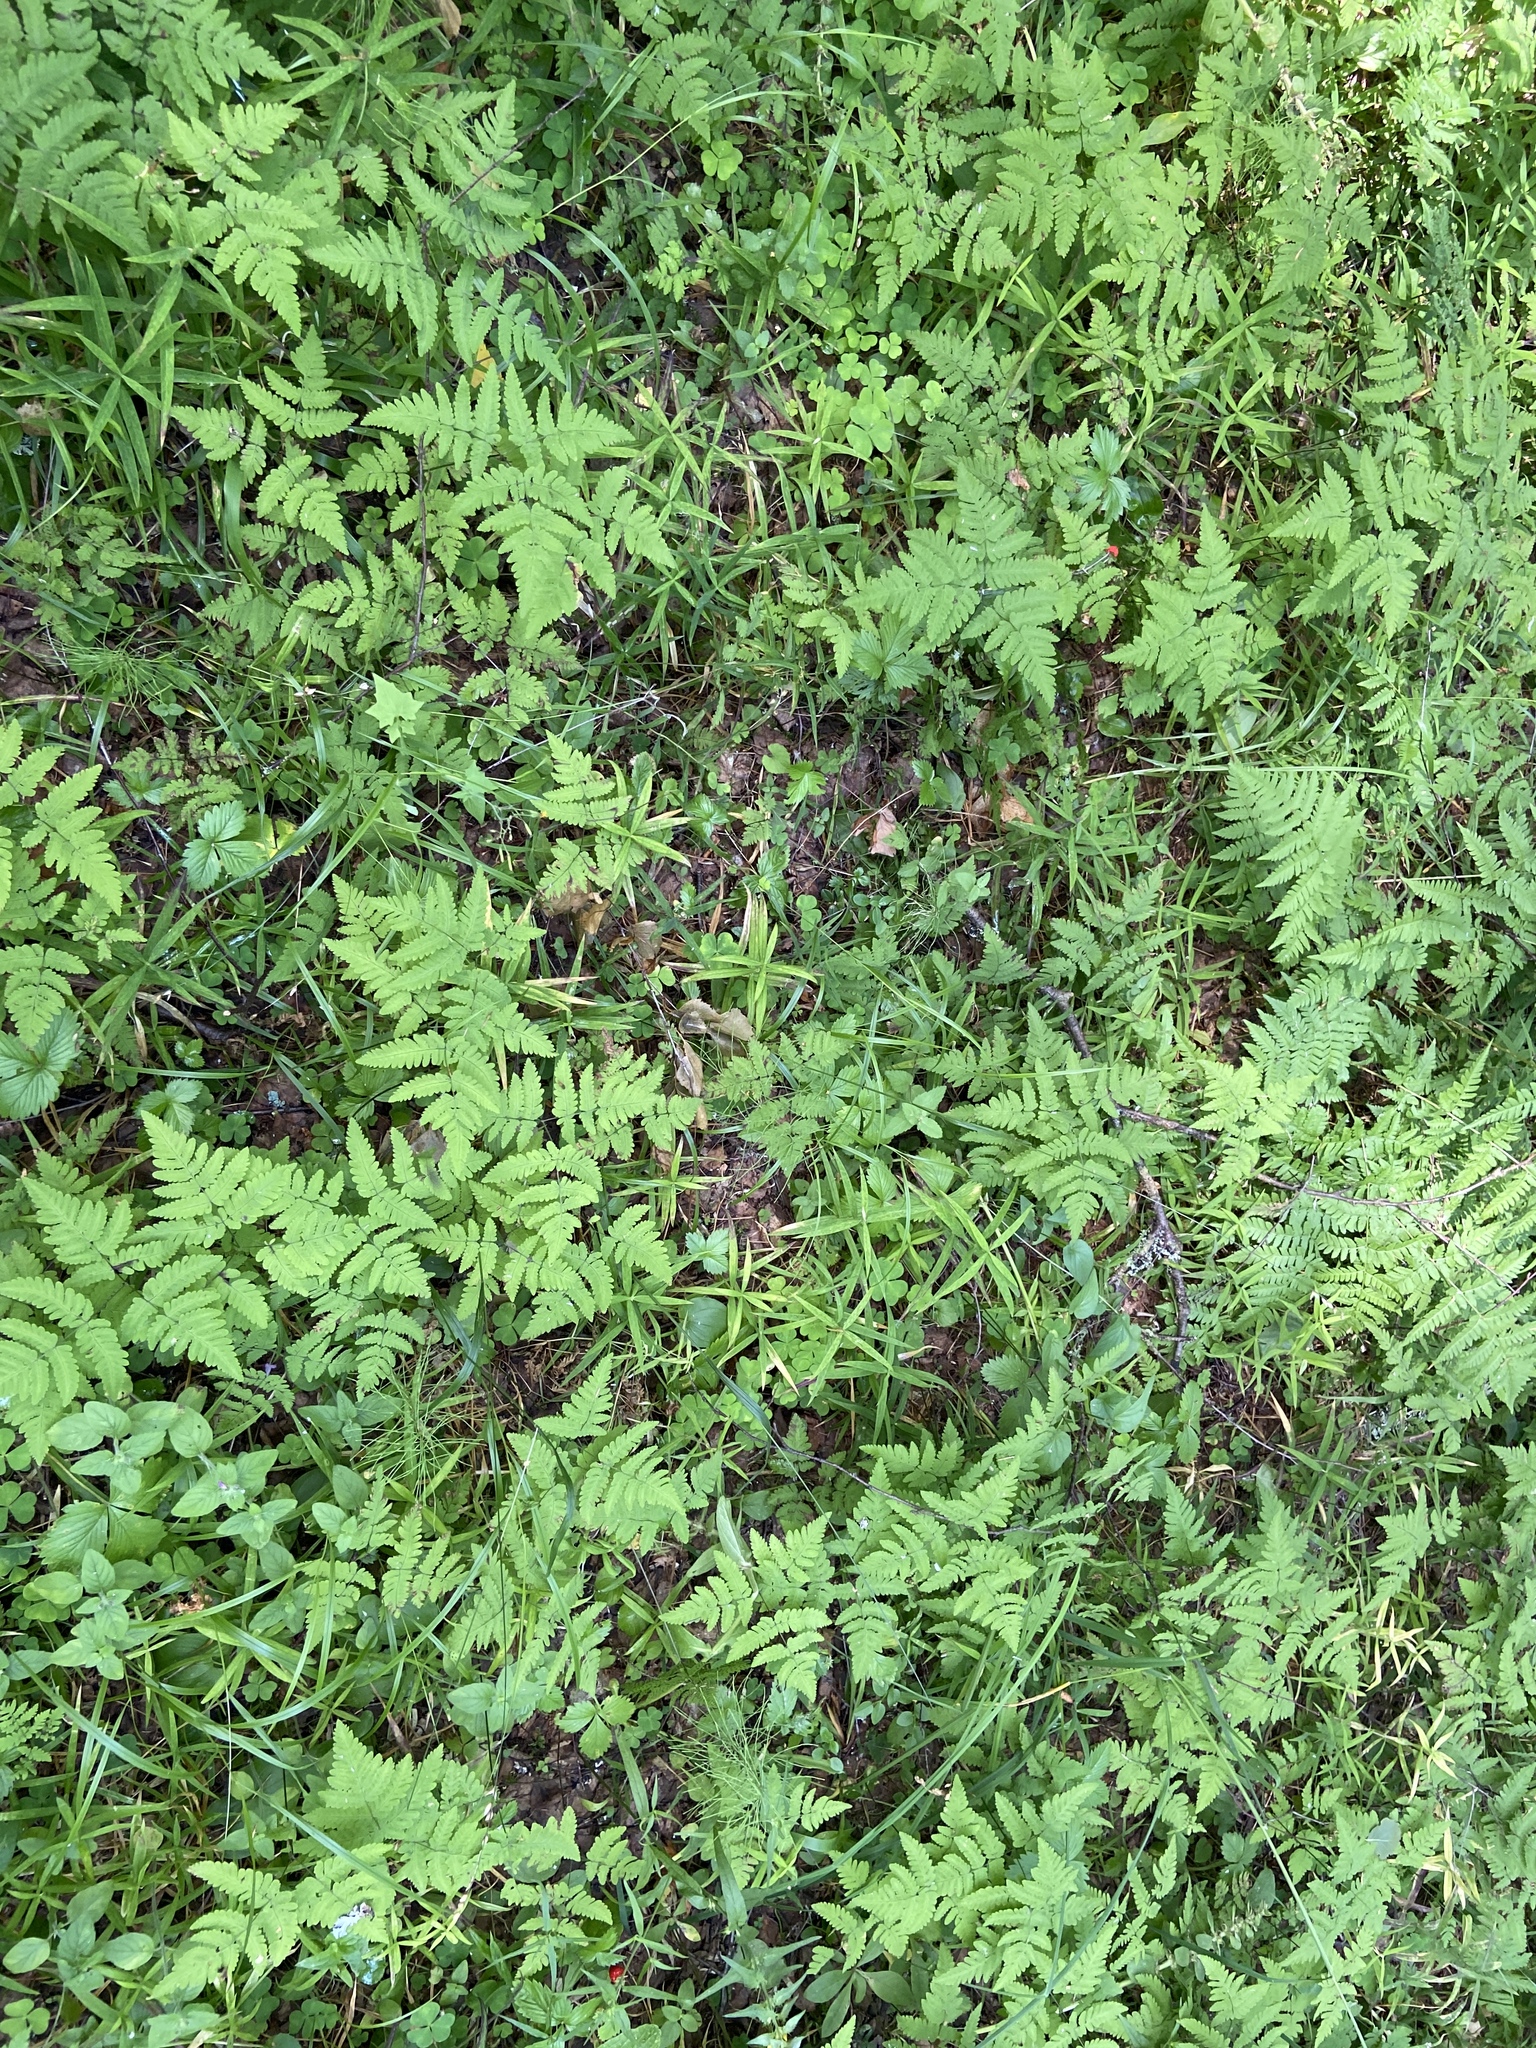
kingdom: Plantae
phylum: Tracheophyta
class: Polypodiopsida
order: Polypodiales
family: Cystopteridaceae
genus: Gymnocarpium
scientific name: Gymnocarpium dryopteris
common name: Oak fern
